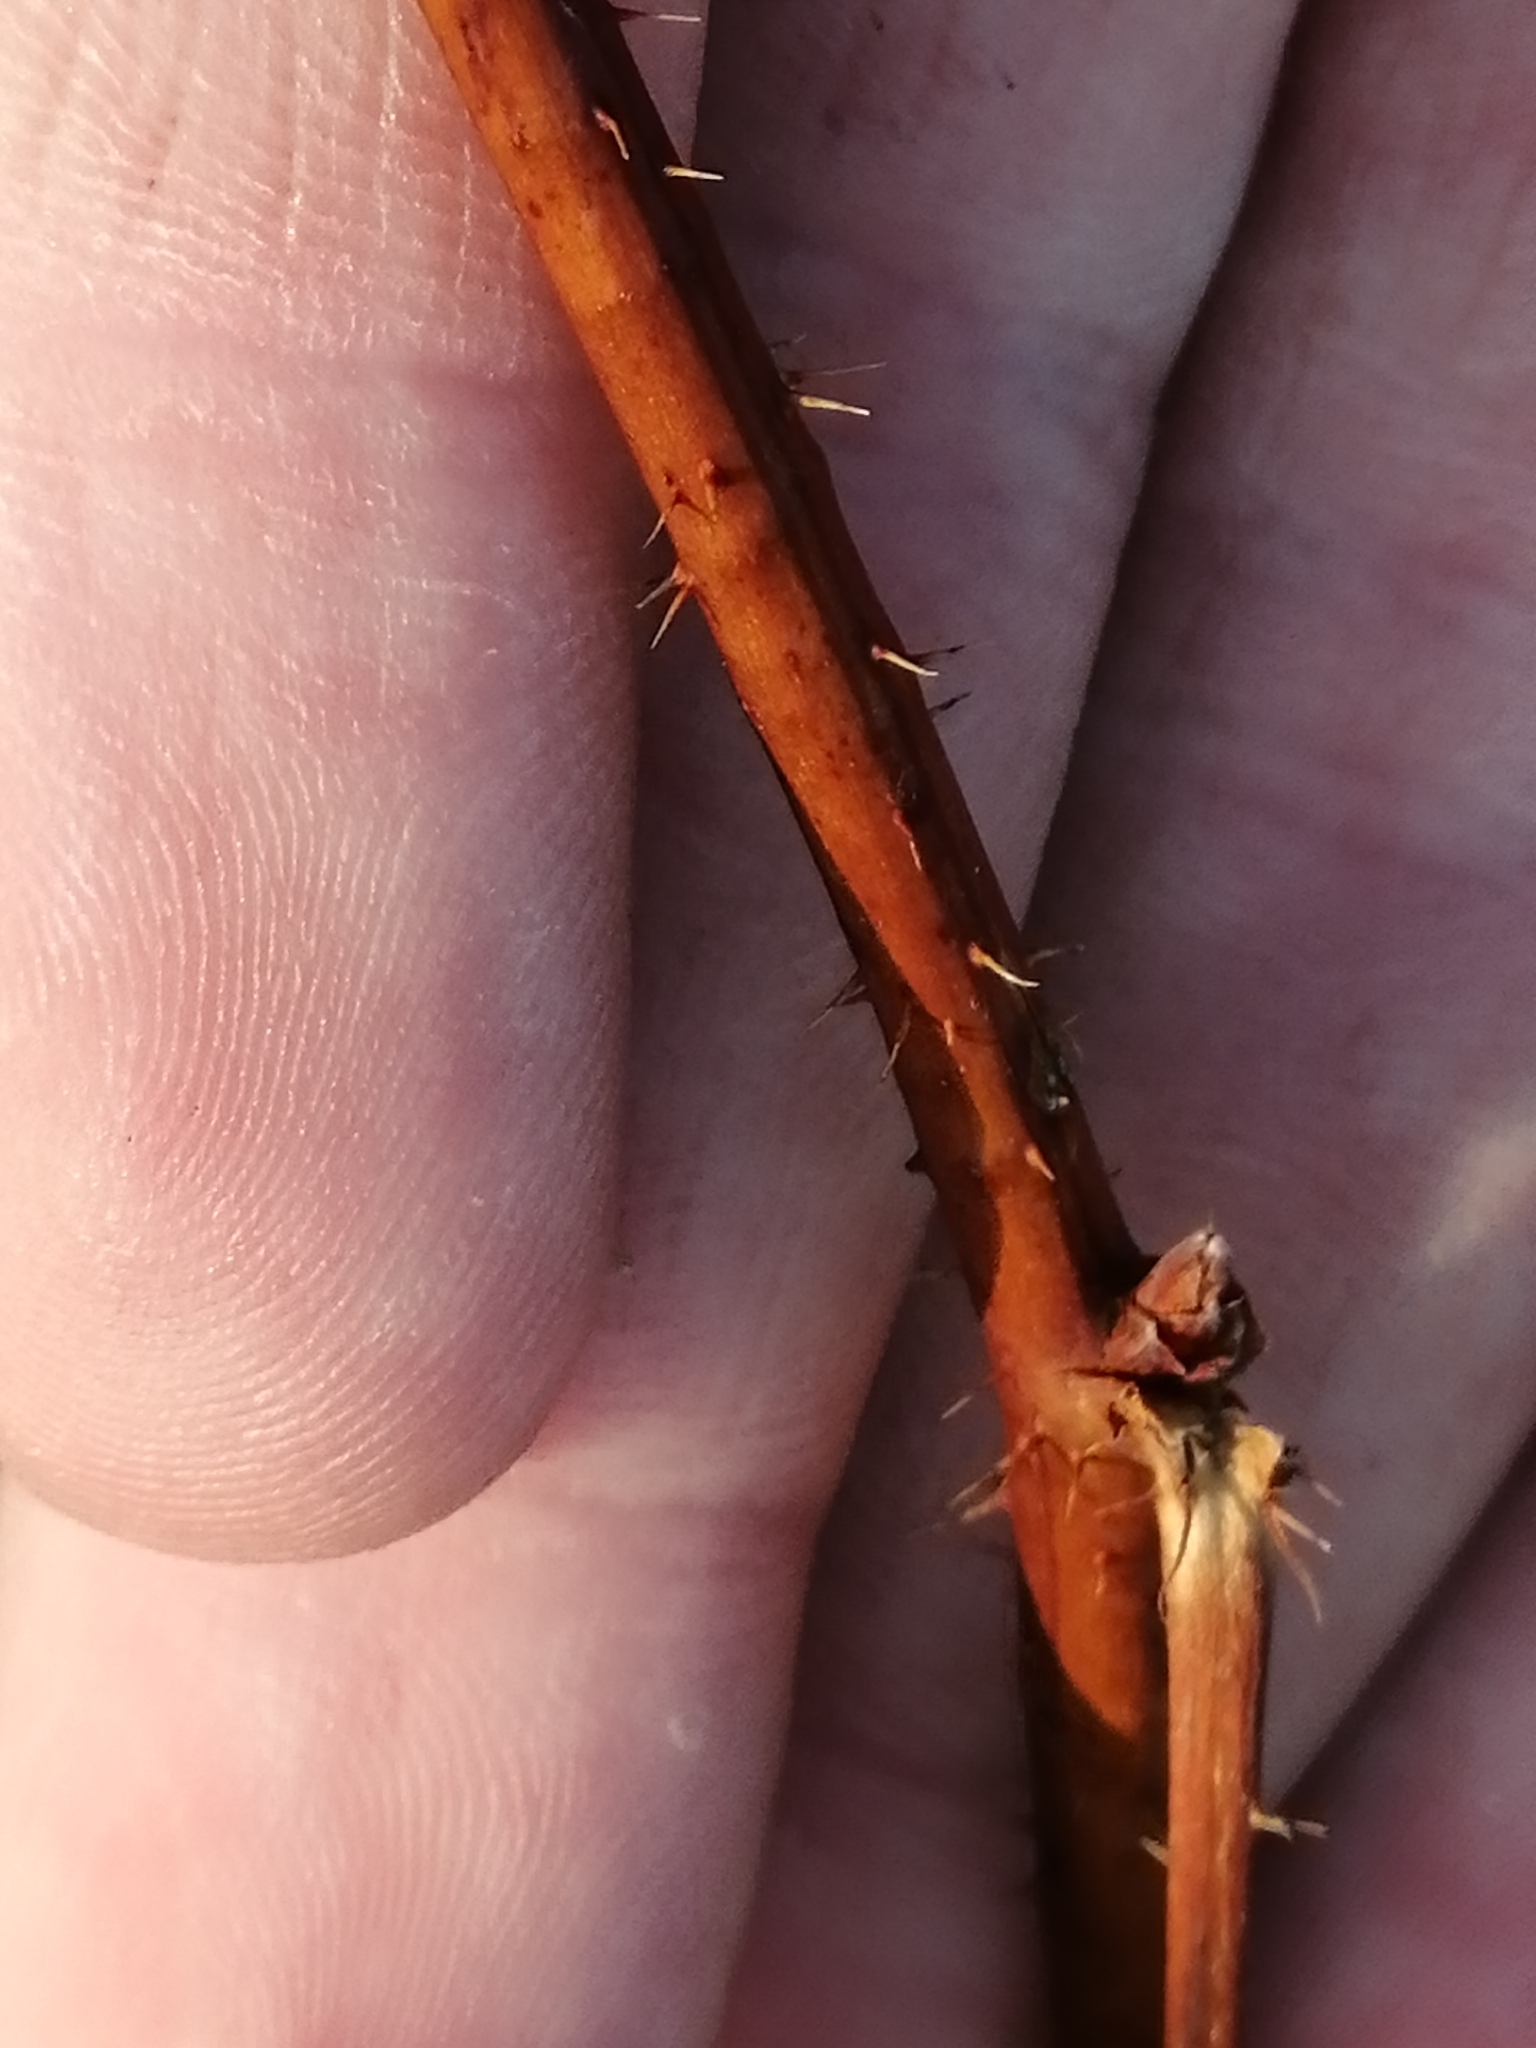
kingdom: Plantae
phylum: Tracheophyta
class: Magnoliopsida
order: Rosales
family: Rosaceae
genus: Rubus
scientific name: Rubus idaeus
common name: Raspberry
